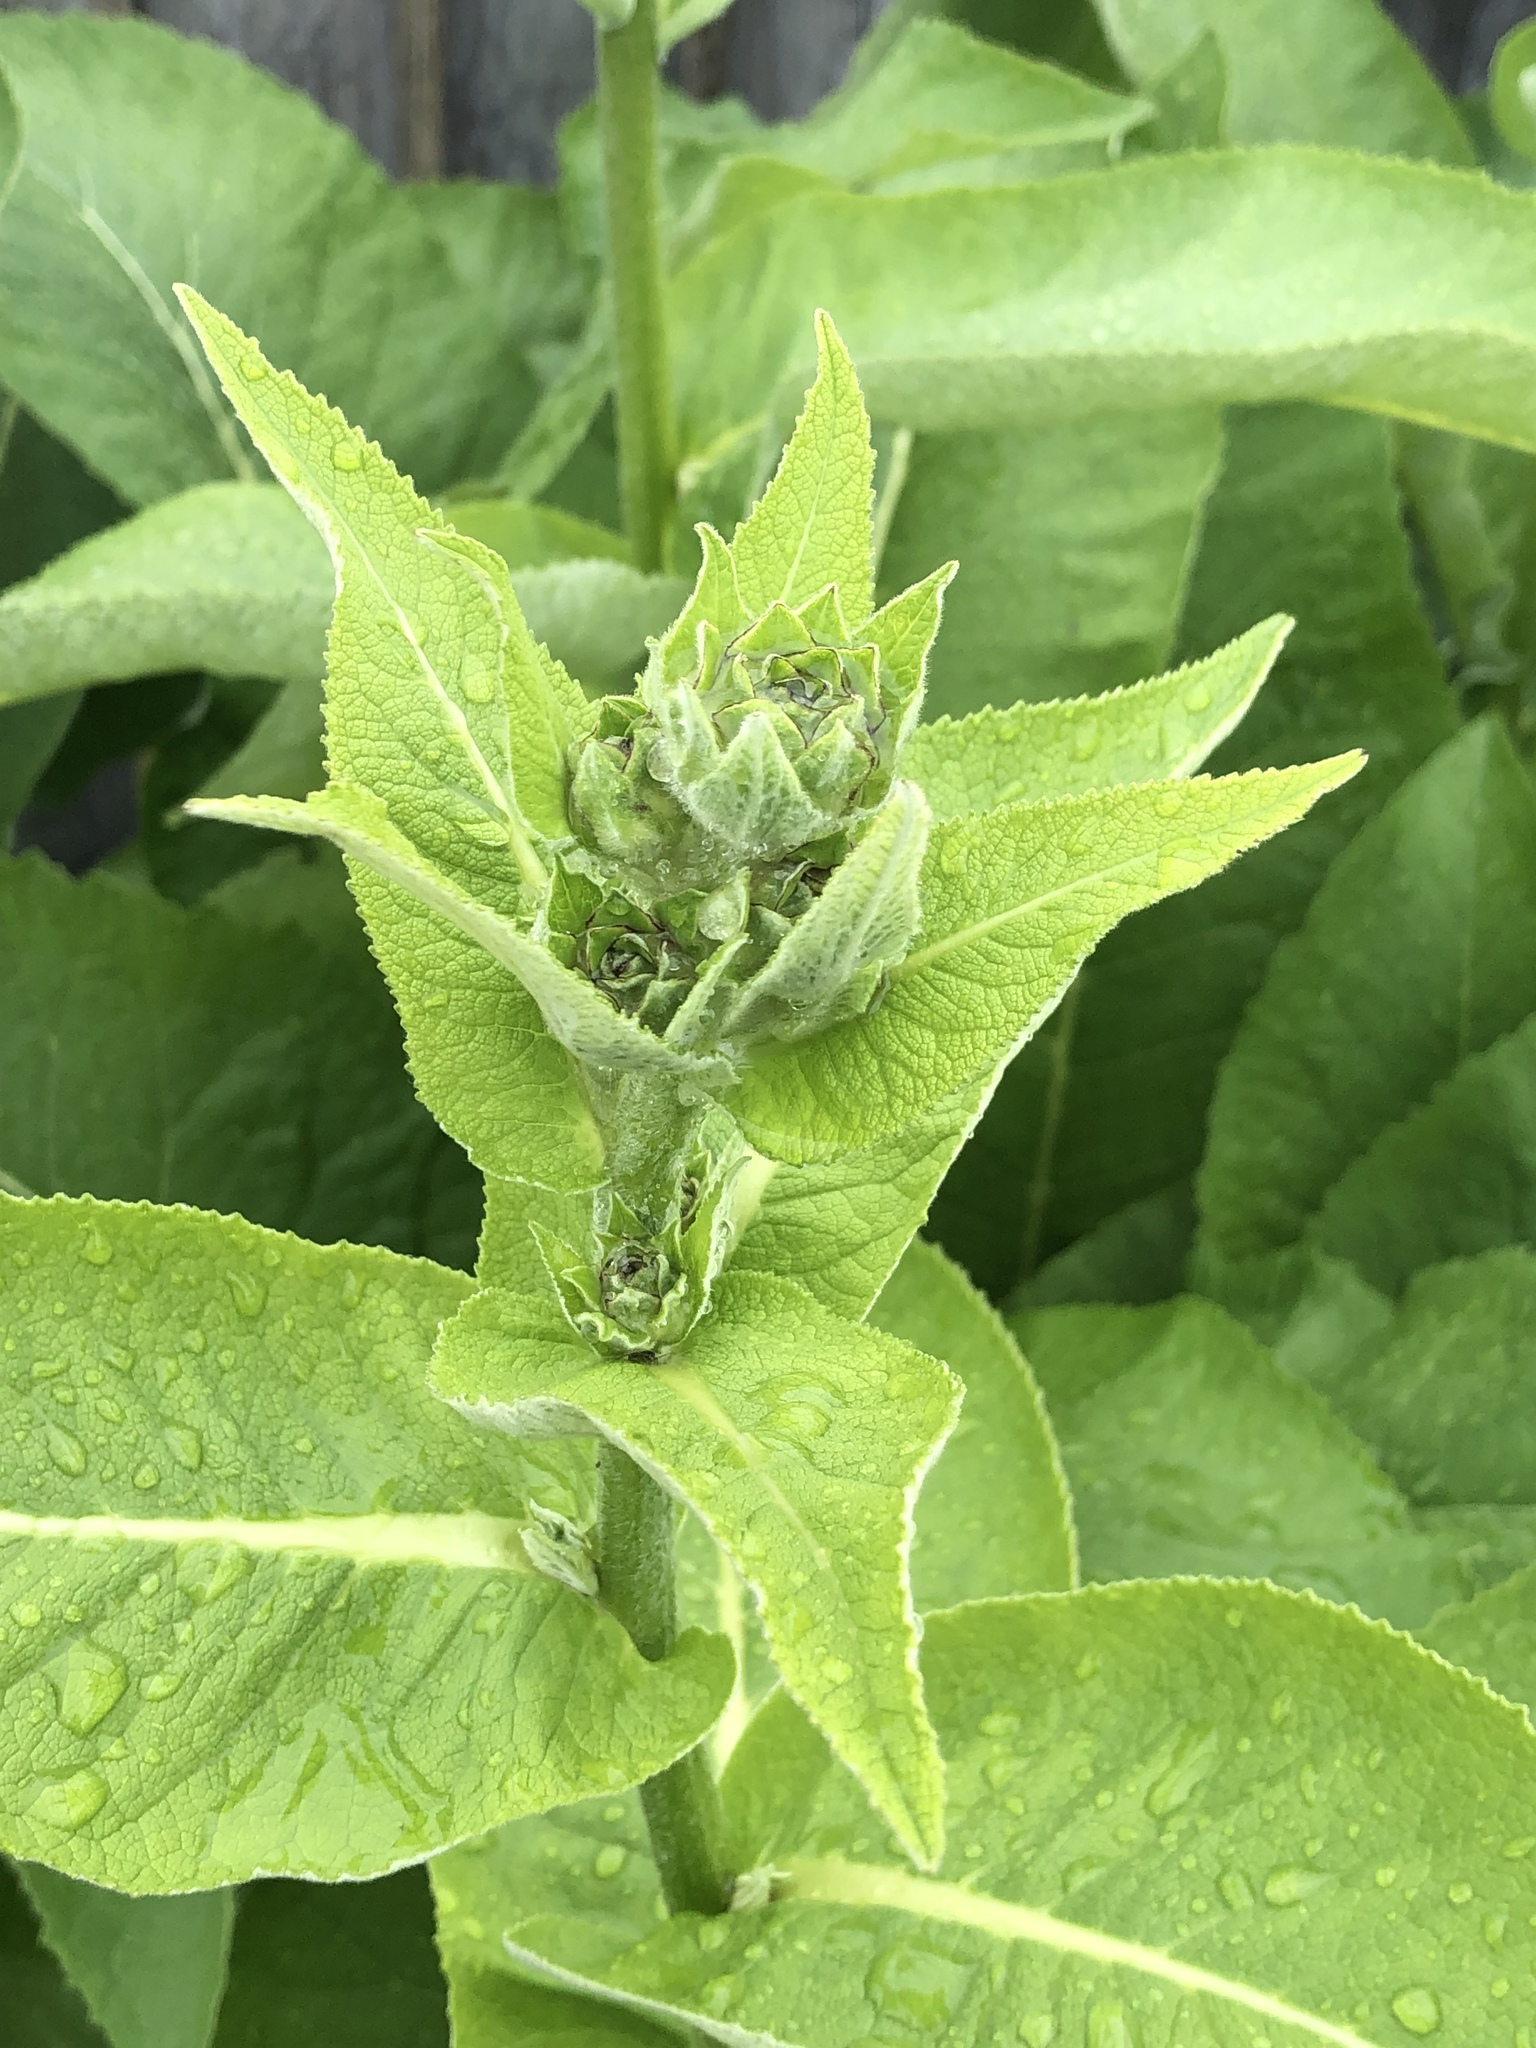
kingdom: Plantae
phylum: Tracheophyta
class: Magnoliopsida
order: Asterales
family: Asteraceae
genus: Inula
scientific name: Inula helenium
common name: Elecampane
